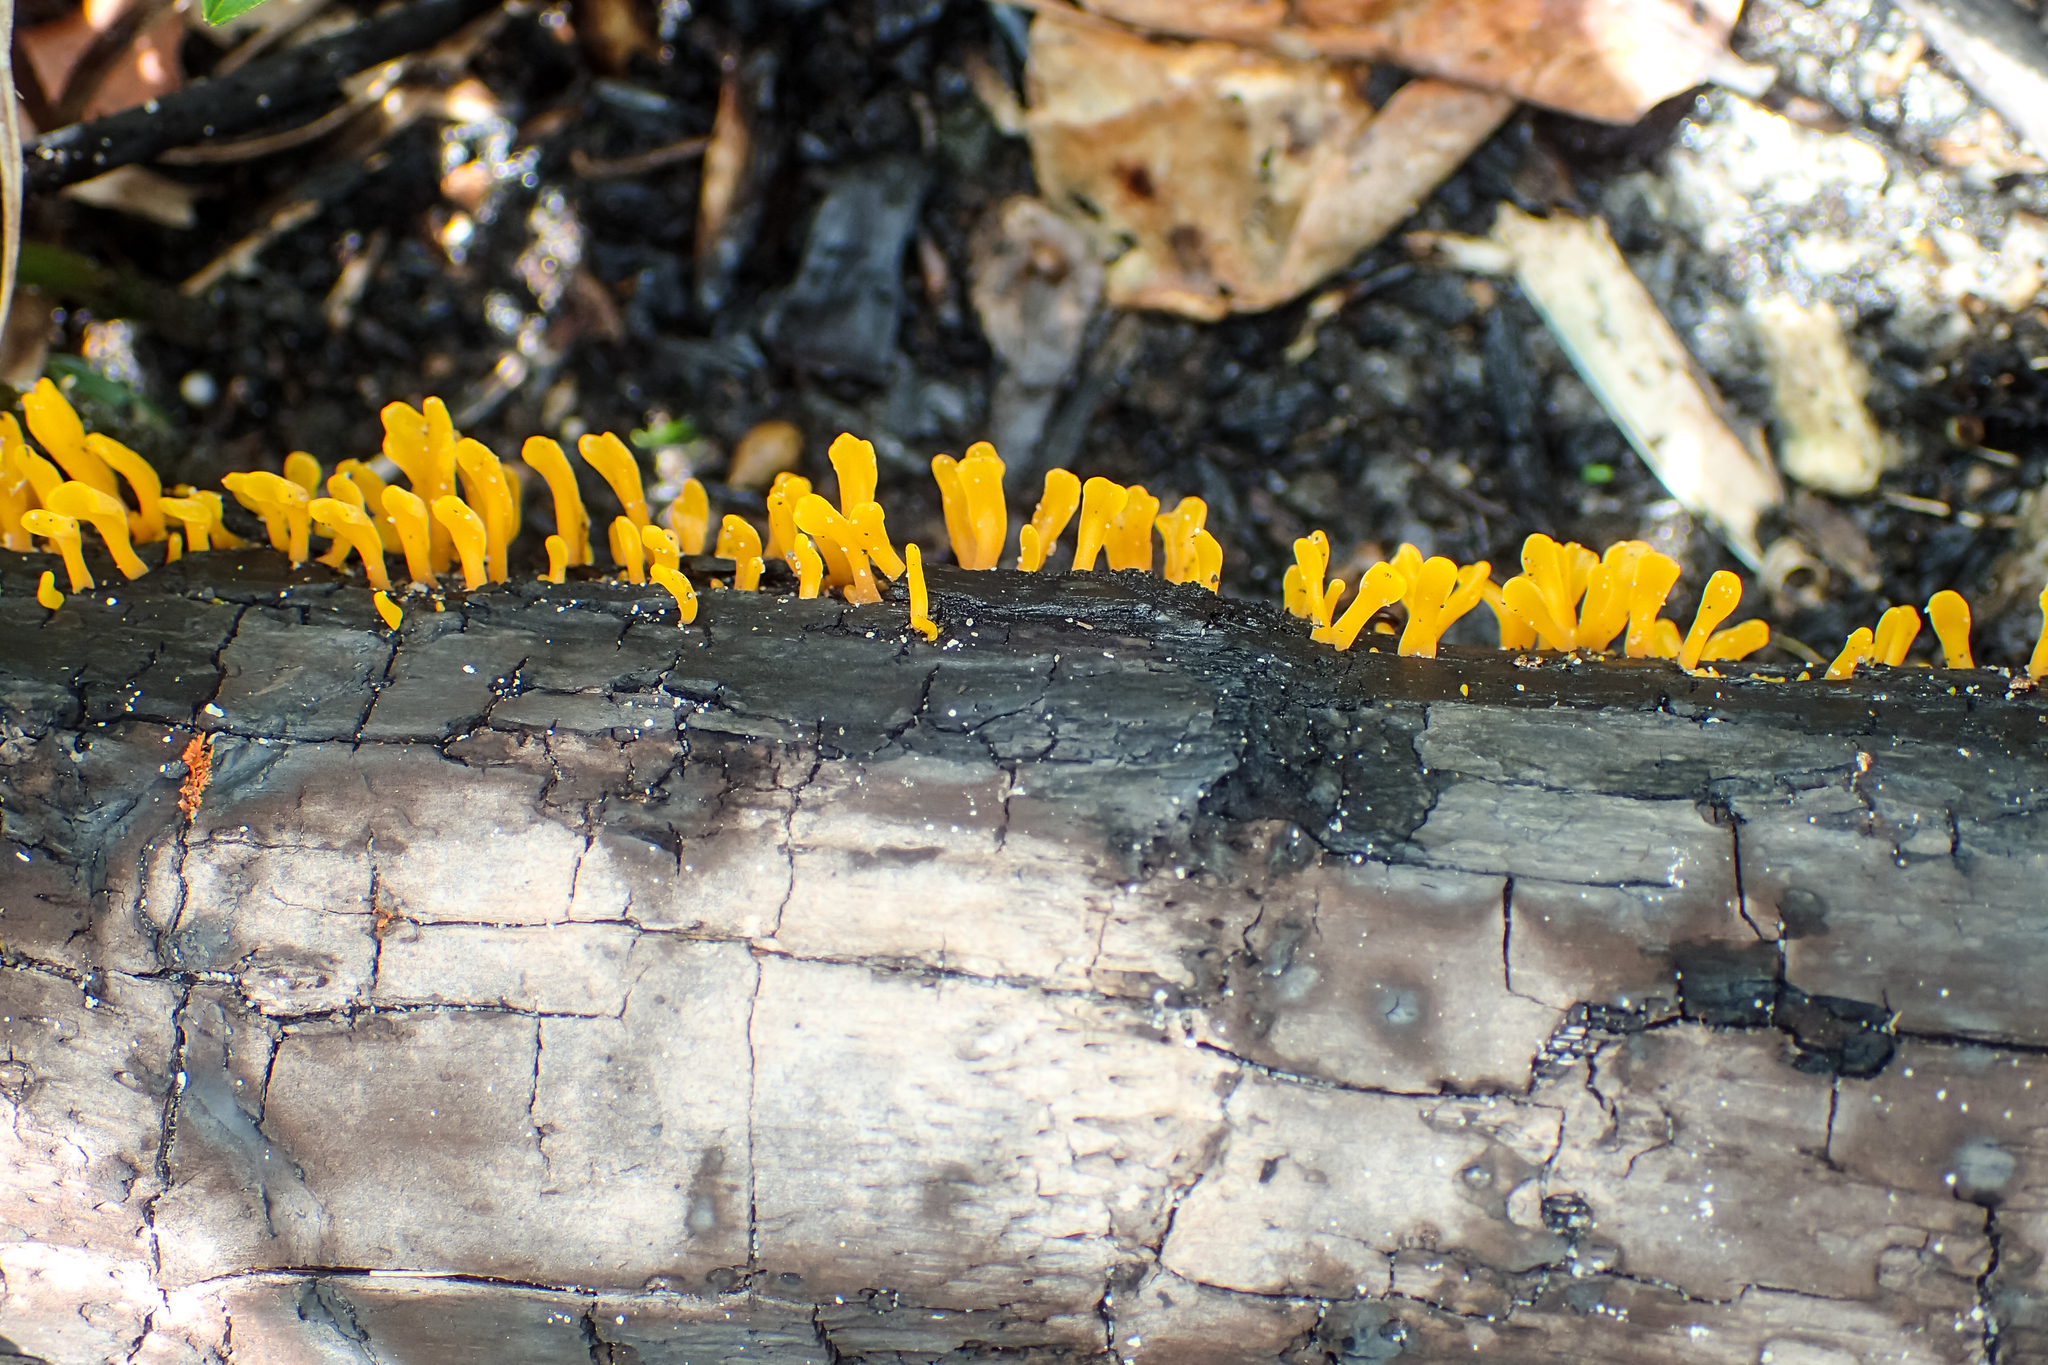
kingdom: Fungi
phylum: Basidiomycota
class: Dacrymycetes
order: Dacrymycetales
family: Dacrymycetaceae
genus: Dacrymyces
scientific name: Dacrymyces spathularius
